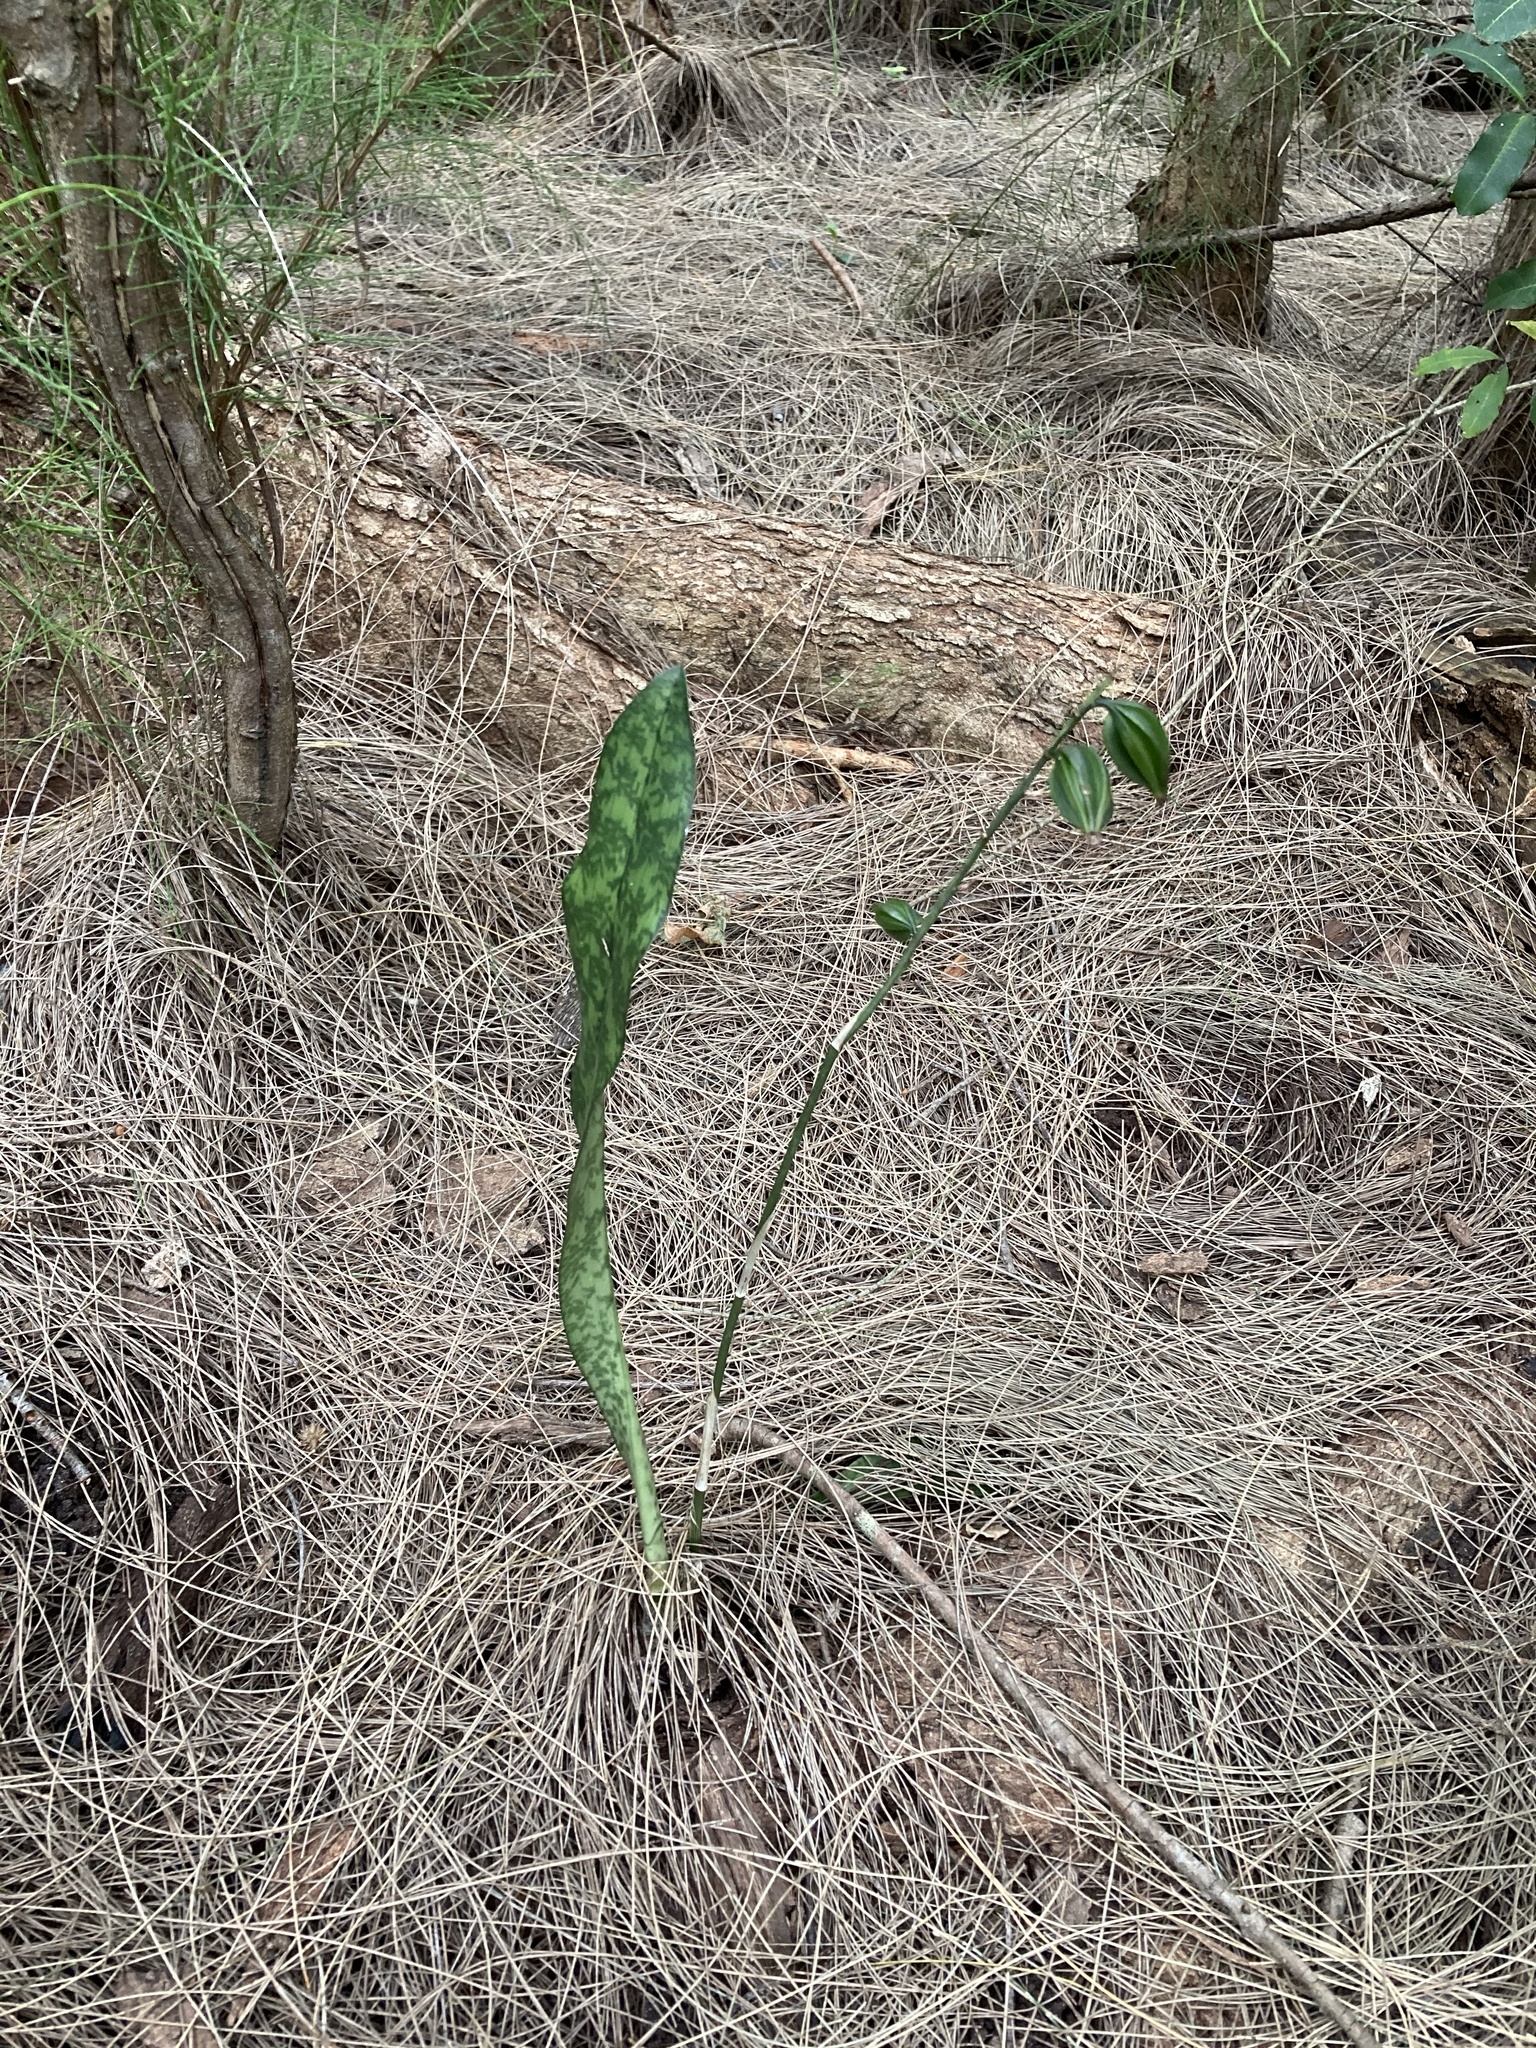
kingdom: Plantae
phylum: Tracheophyta
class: Liliopsida
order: Asparagales
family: Orchidaceae
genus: Eulophia
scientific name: Eulophia maculata
